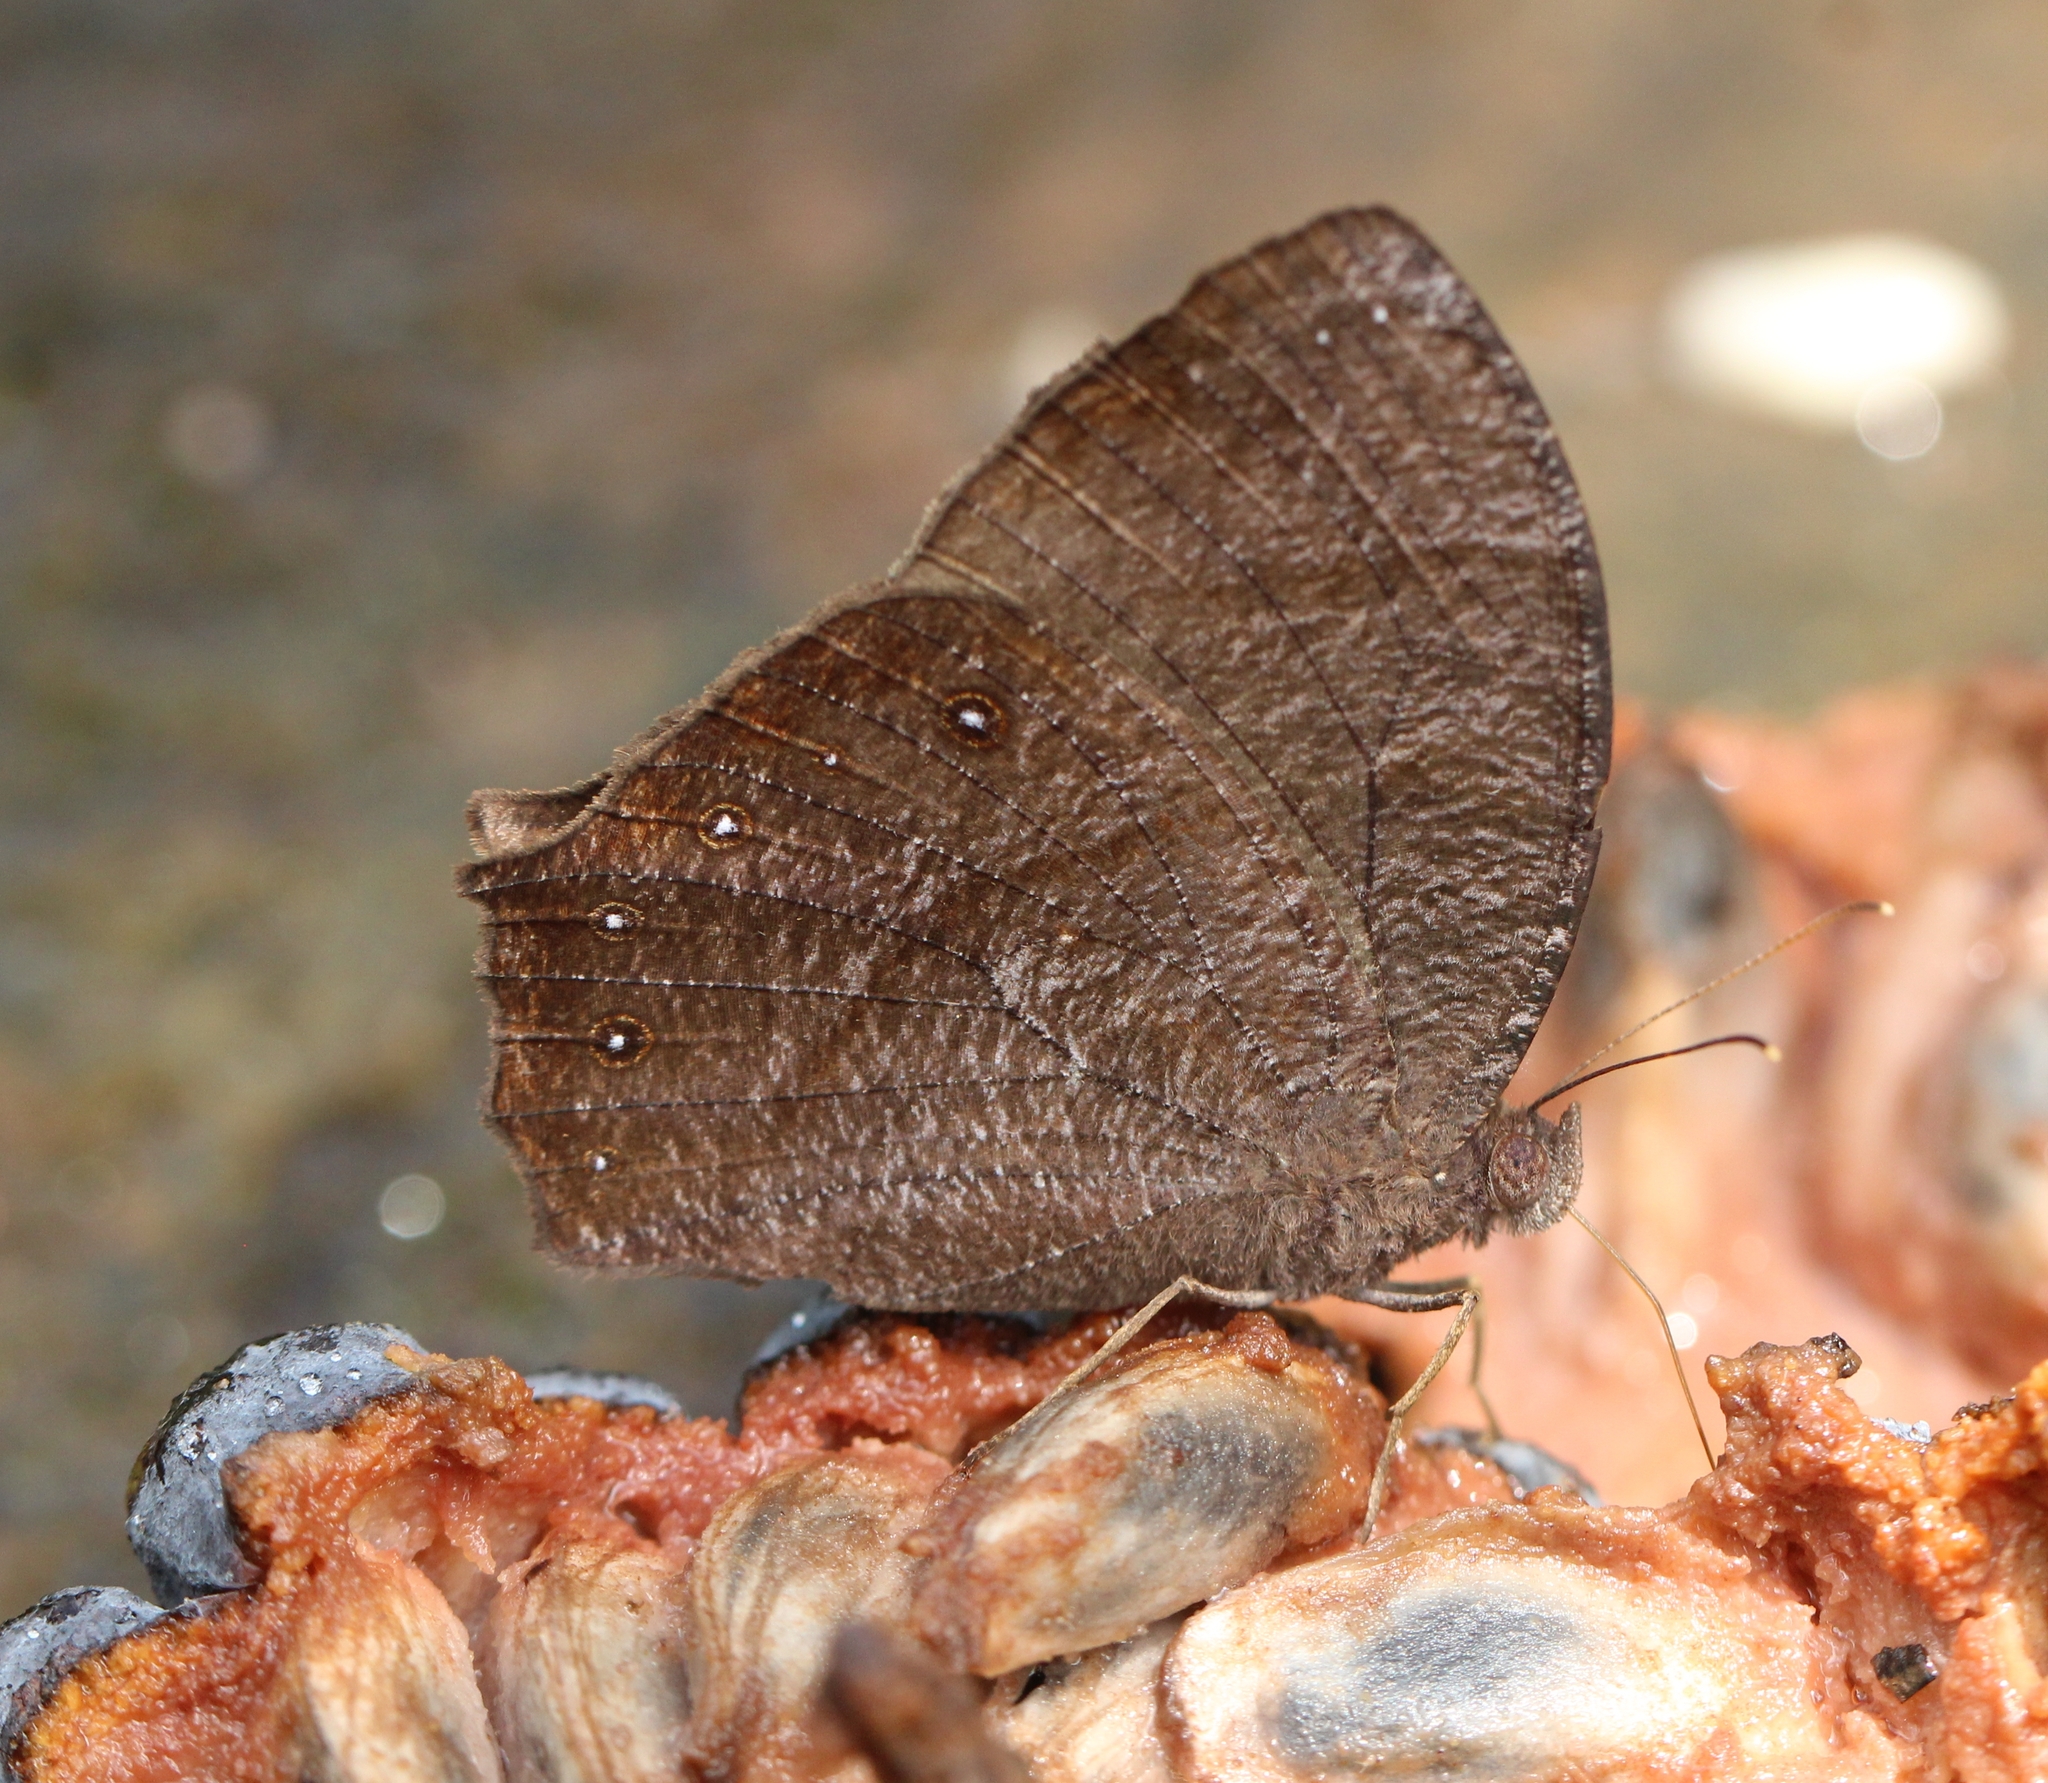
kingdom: Animalia
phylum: Arthropoda
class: Insecta
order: Lepidoptera
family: Nymphalidae
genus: Melanitis
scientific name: Melanitis phedima
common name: Dark evening brown
